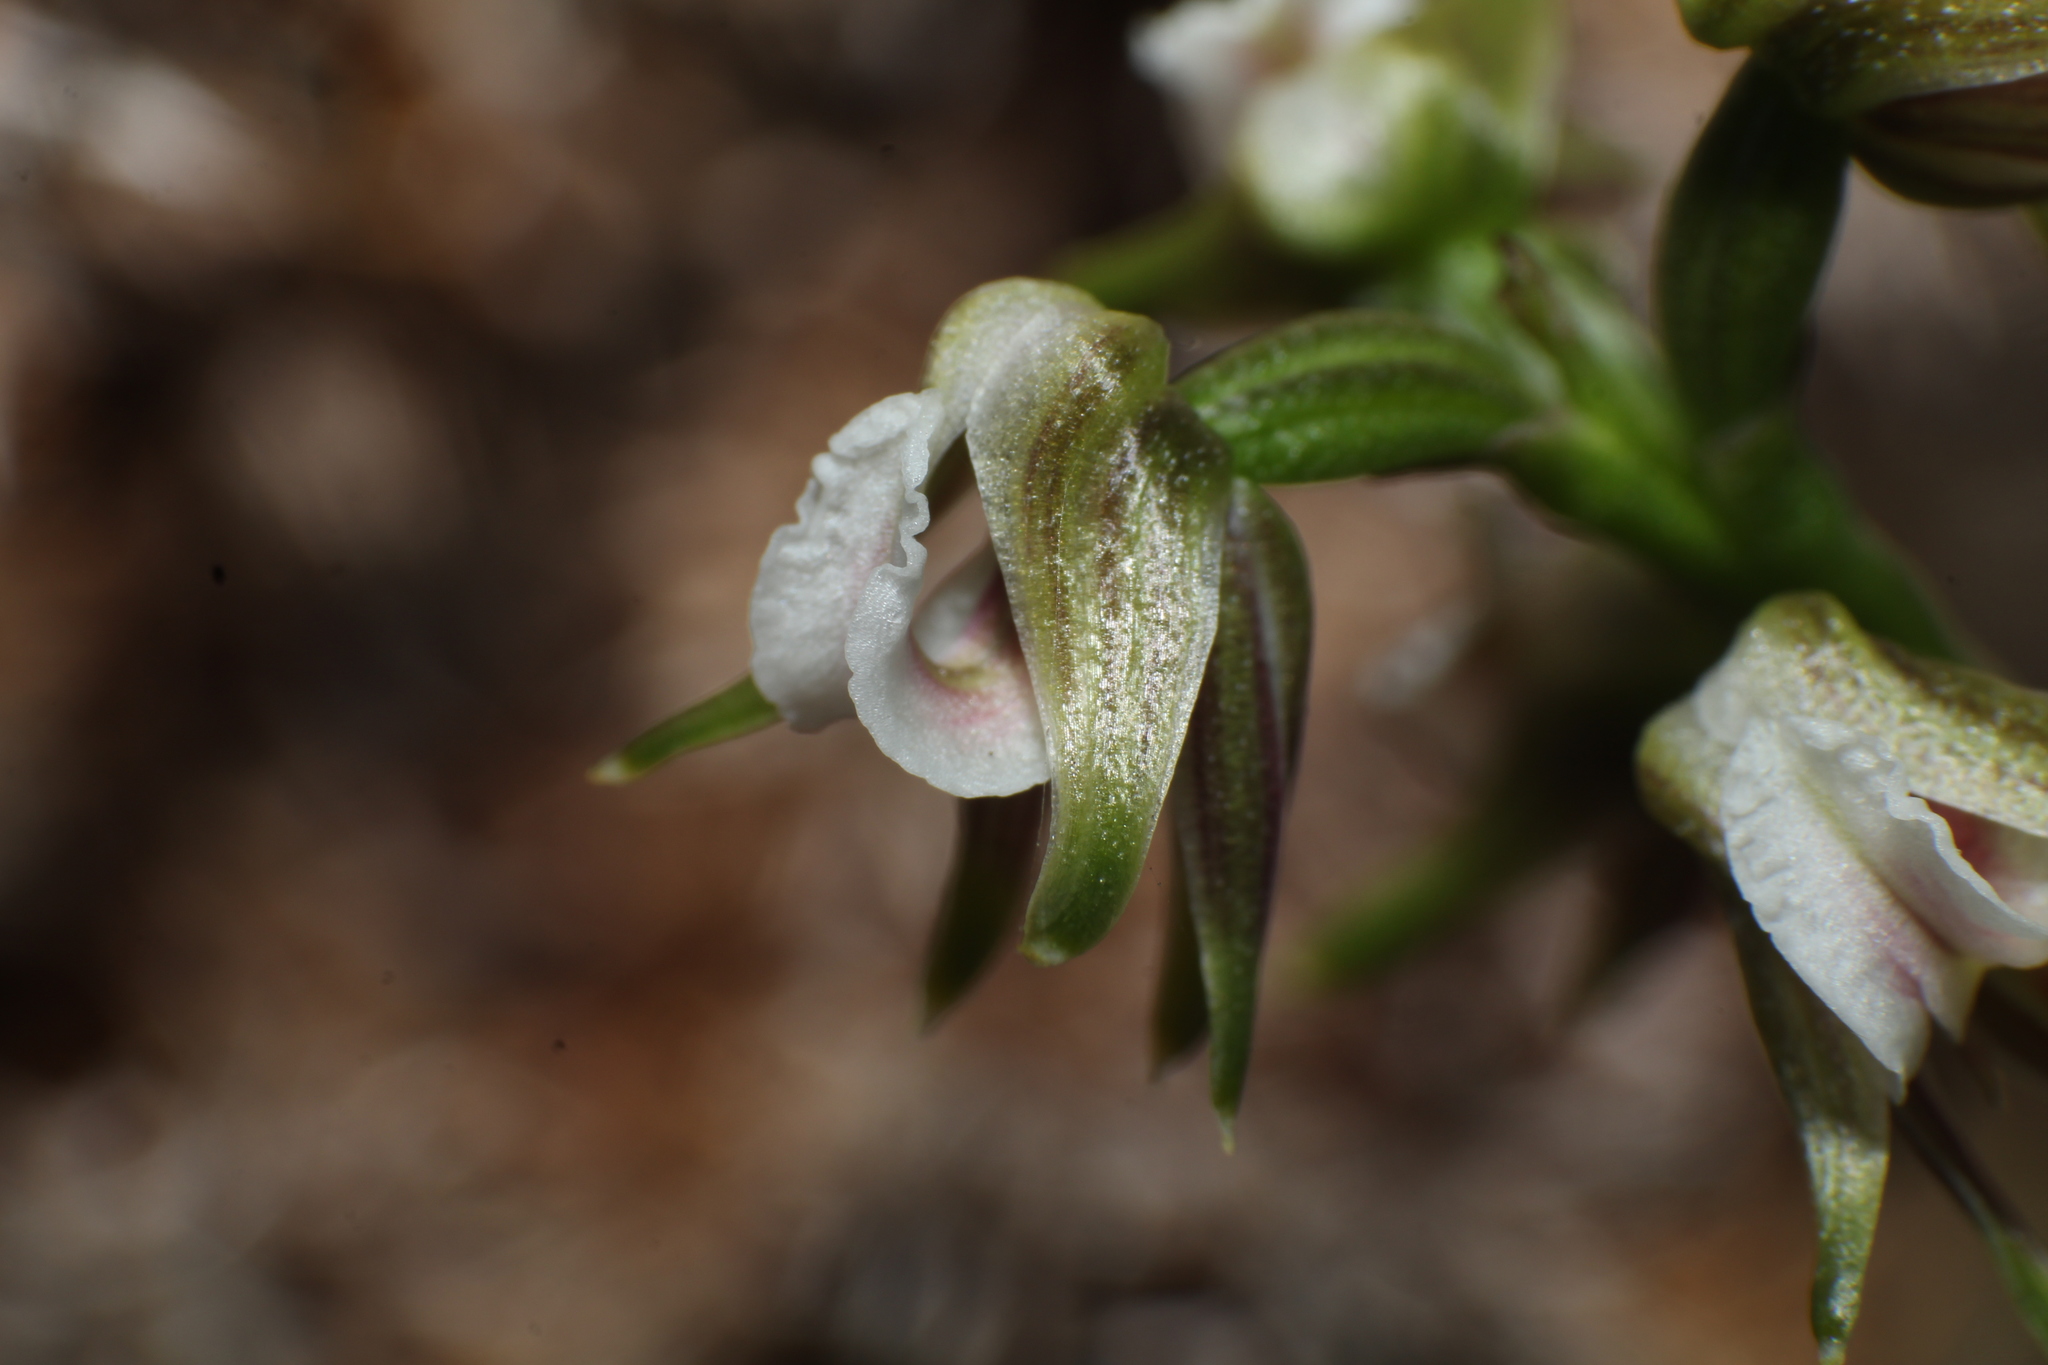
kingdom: Plantae
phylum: Tracheophyta
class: Liliopsida
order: Asparagales
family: Orchidaceae
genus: Prasophyllum
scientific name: Prasophyllum parvifolium
